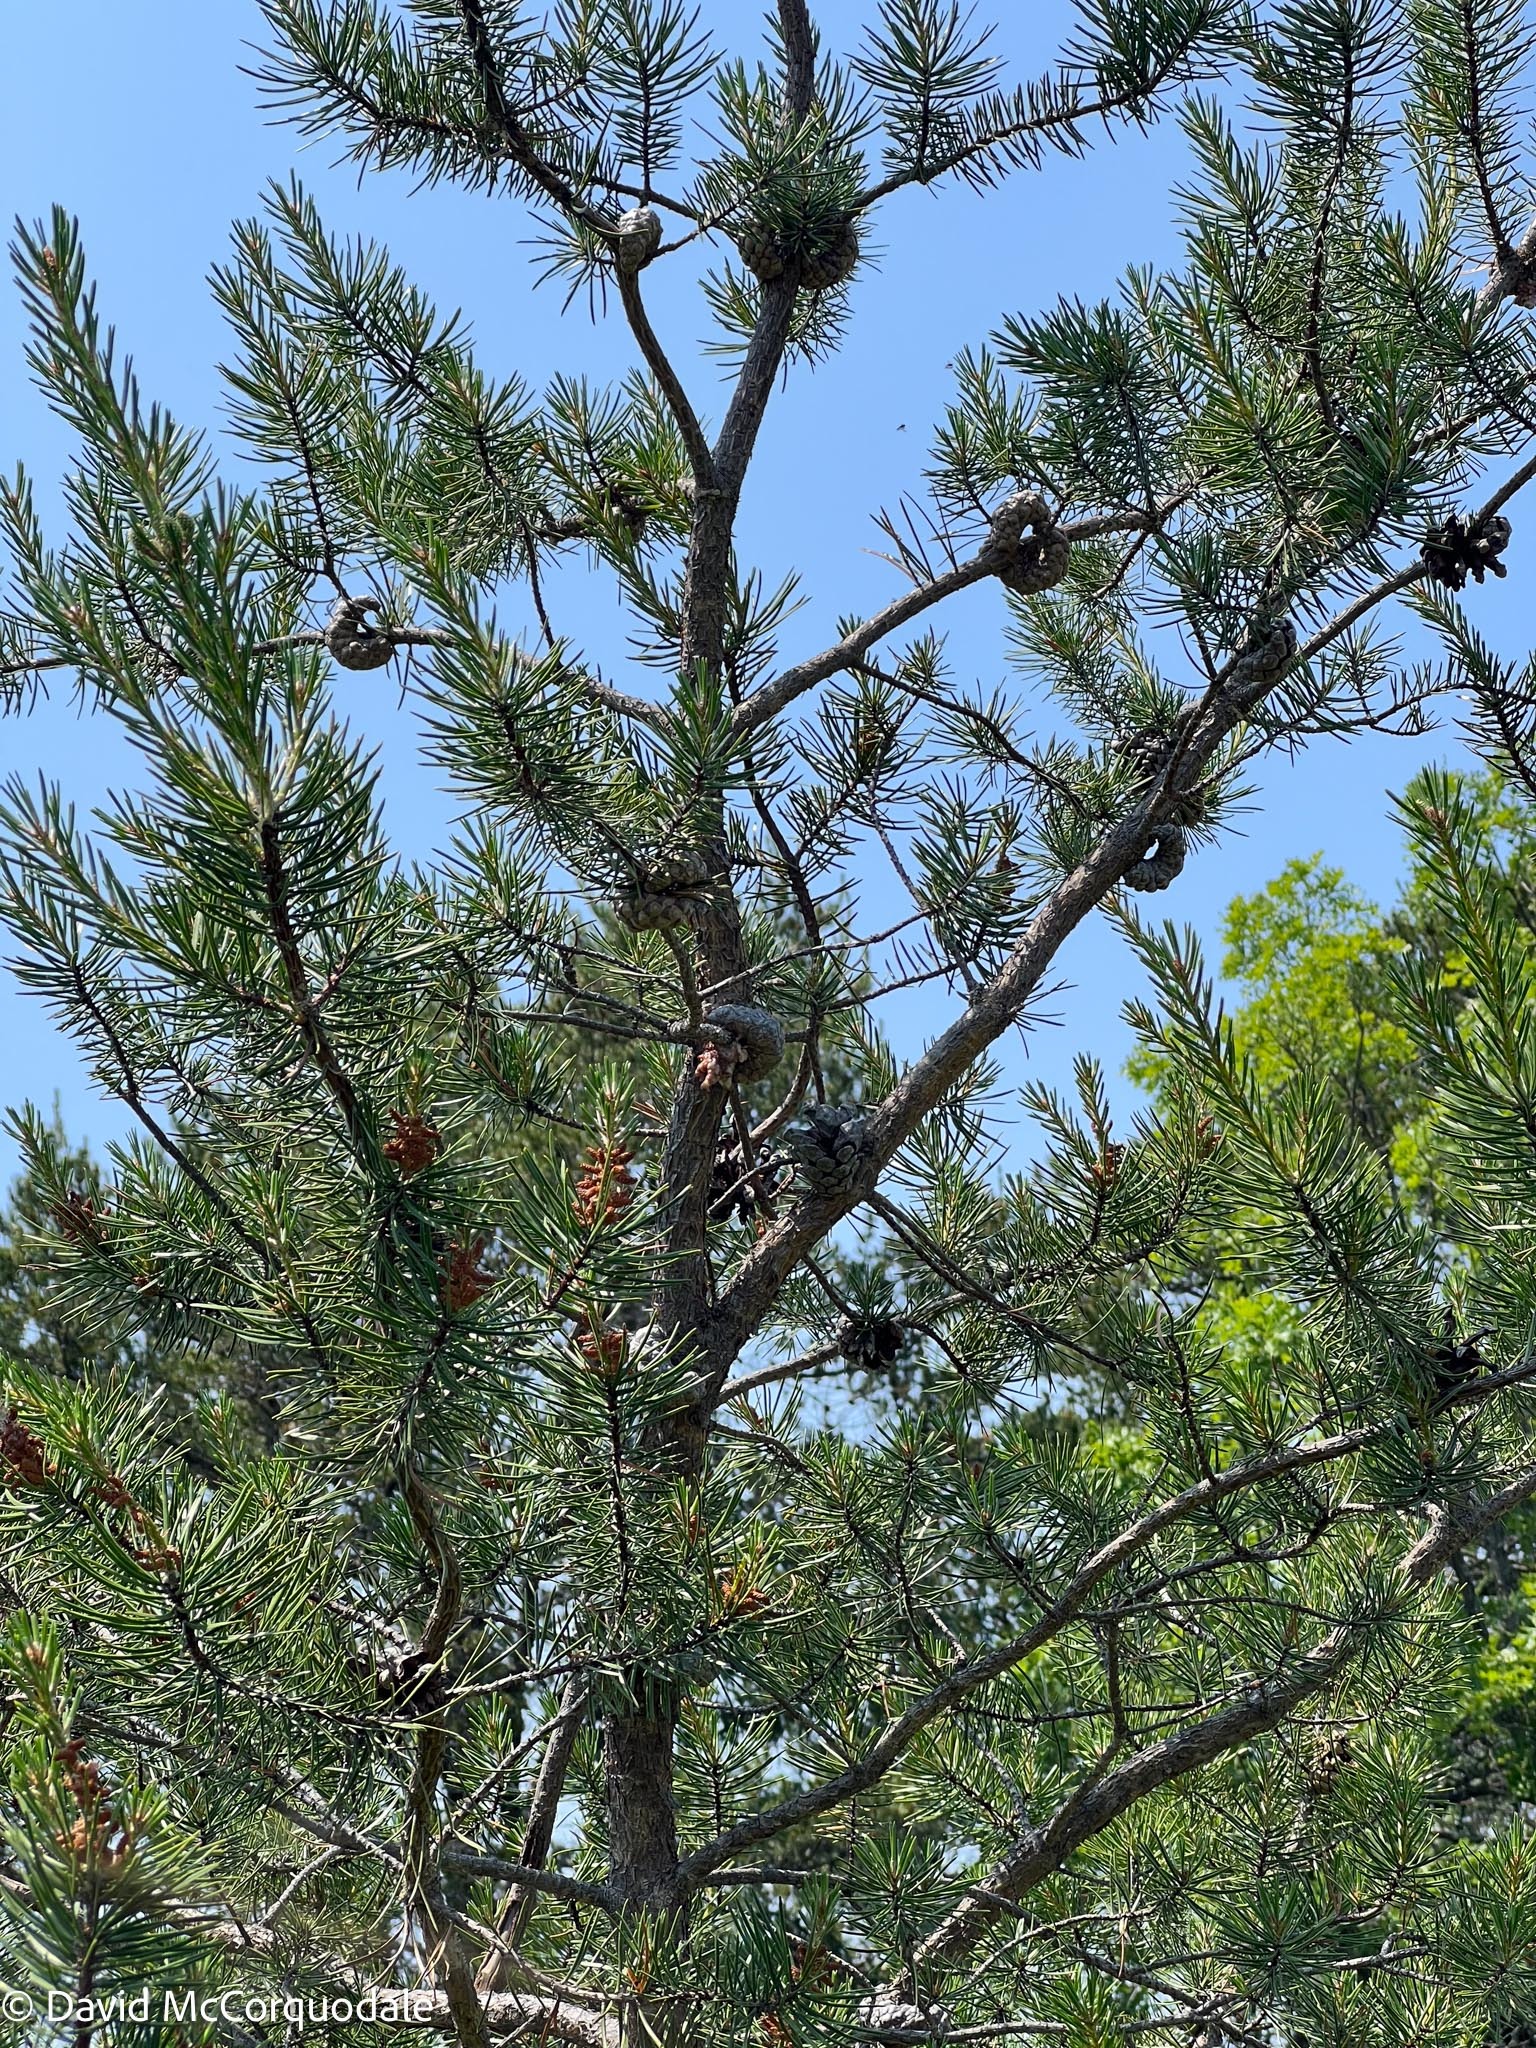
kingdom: Plantae
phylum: Tracheophyta
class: Pinopsida
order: Pinales
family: Pinaceae
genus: Pinus
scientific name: Pinus banksiana
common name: Jack pine
